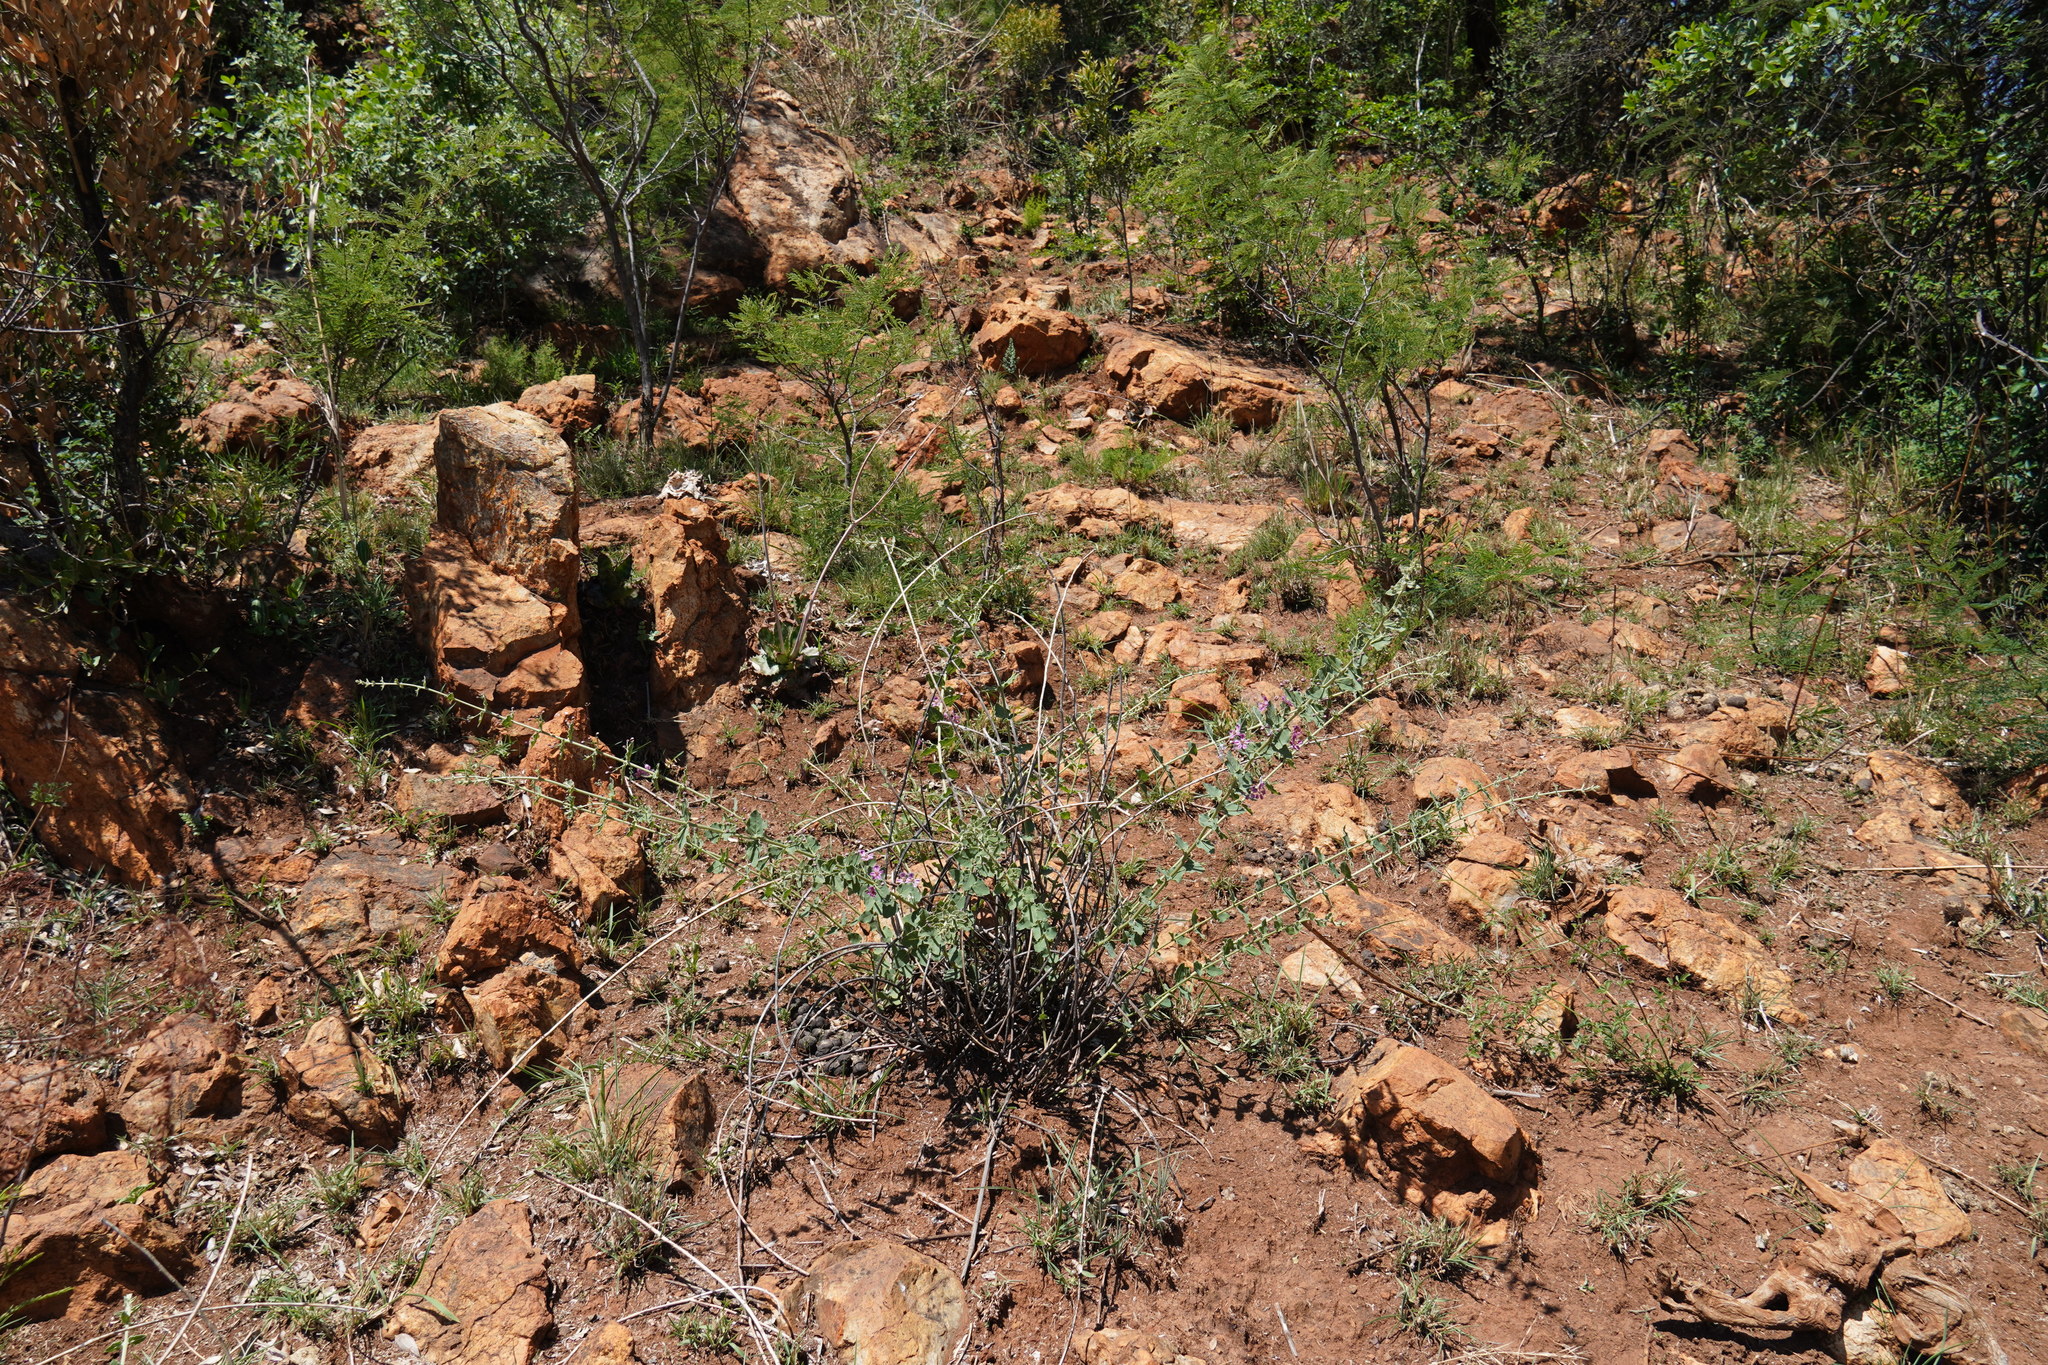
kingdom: Plantae
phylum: Tracheophyta
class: Magnoliopsida
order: Malpighiales
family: Malpighiaceae
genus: Triaspis
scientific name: Triaspis glaucophylla
